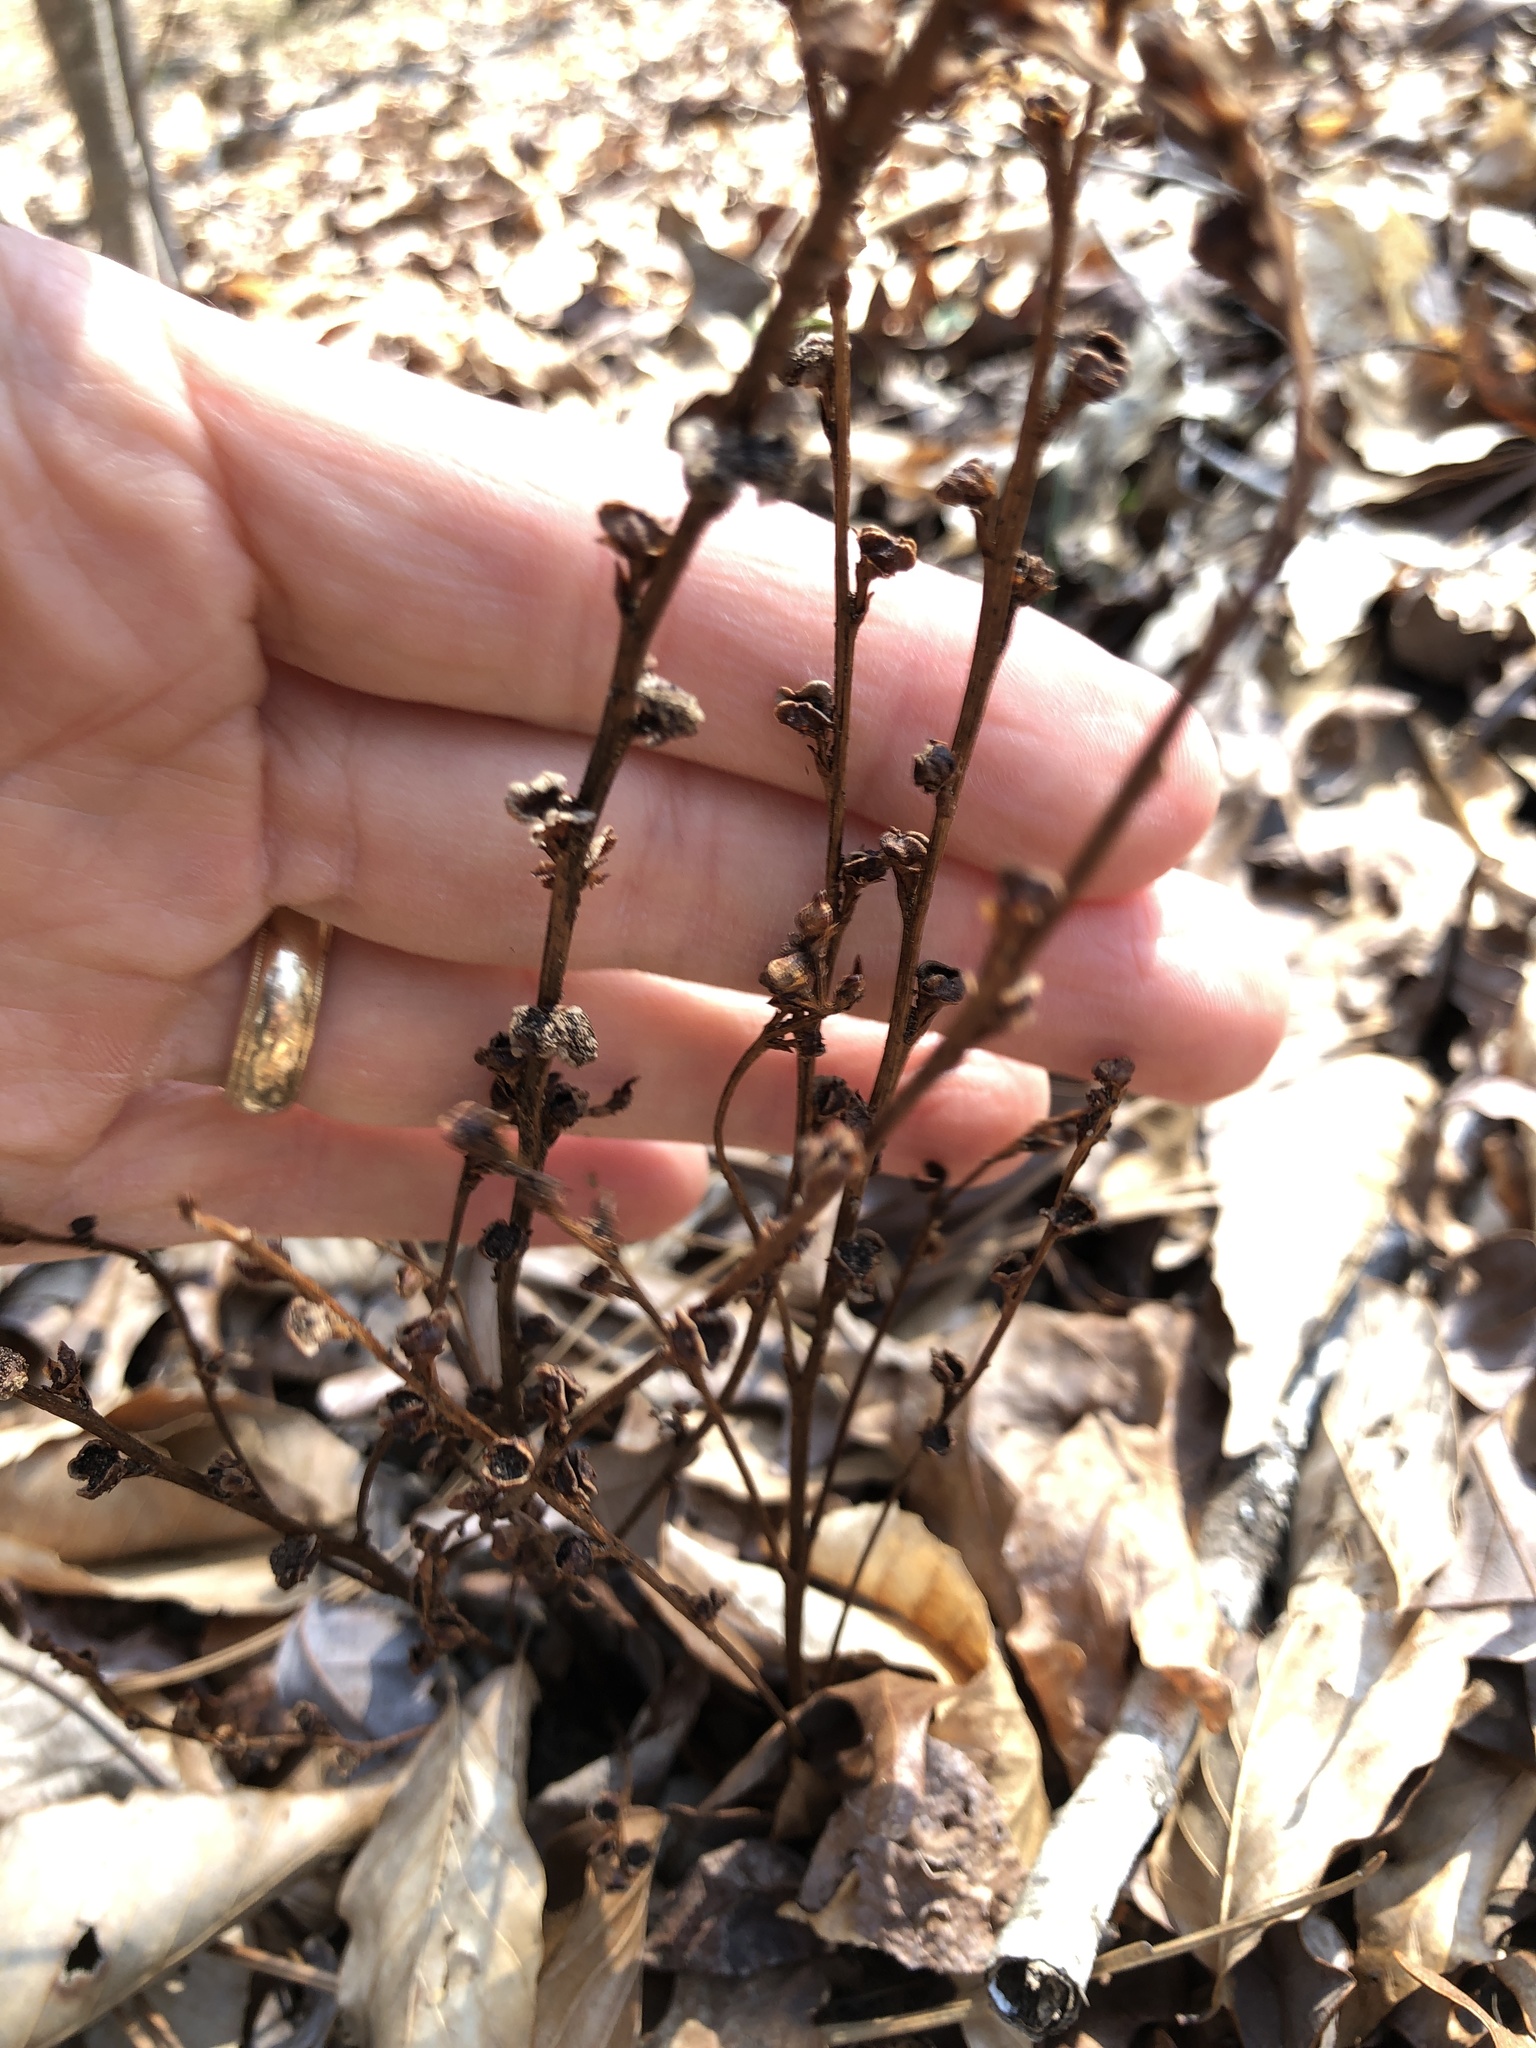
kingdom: Plantae
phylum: Tracheophyta
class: Magnoliopsida
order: Lamiales
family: Orobanchaceae
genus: Epifagus
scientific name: Epifagus virginiana
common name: Beechdrops
